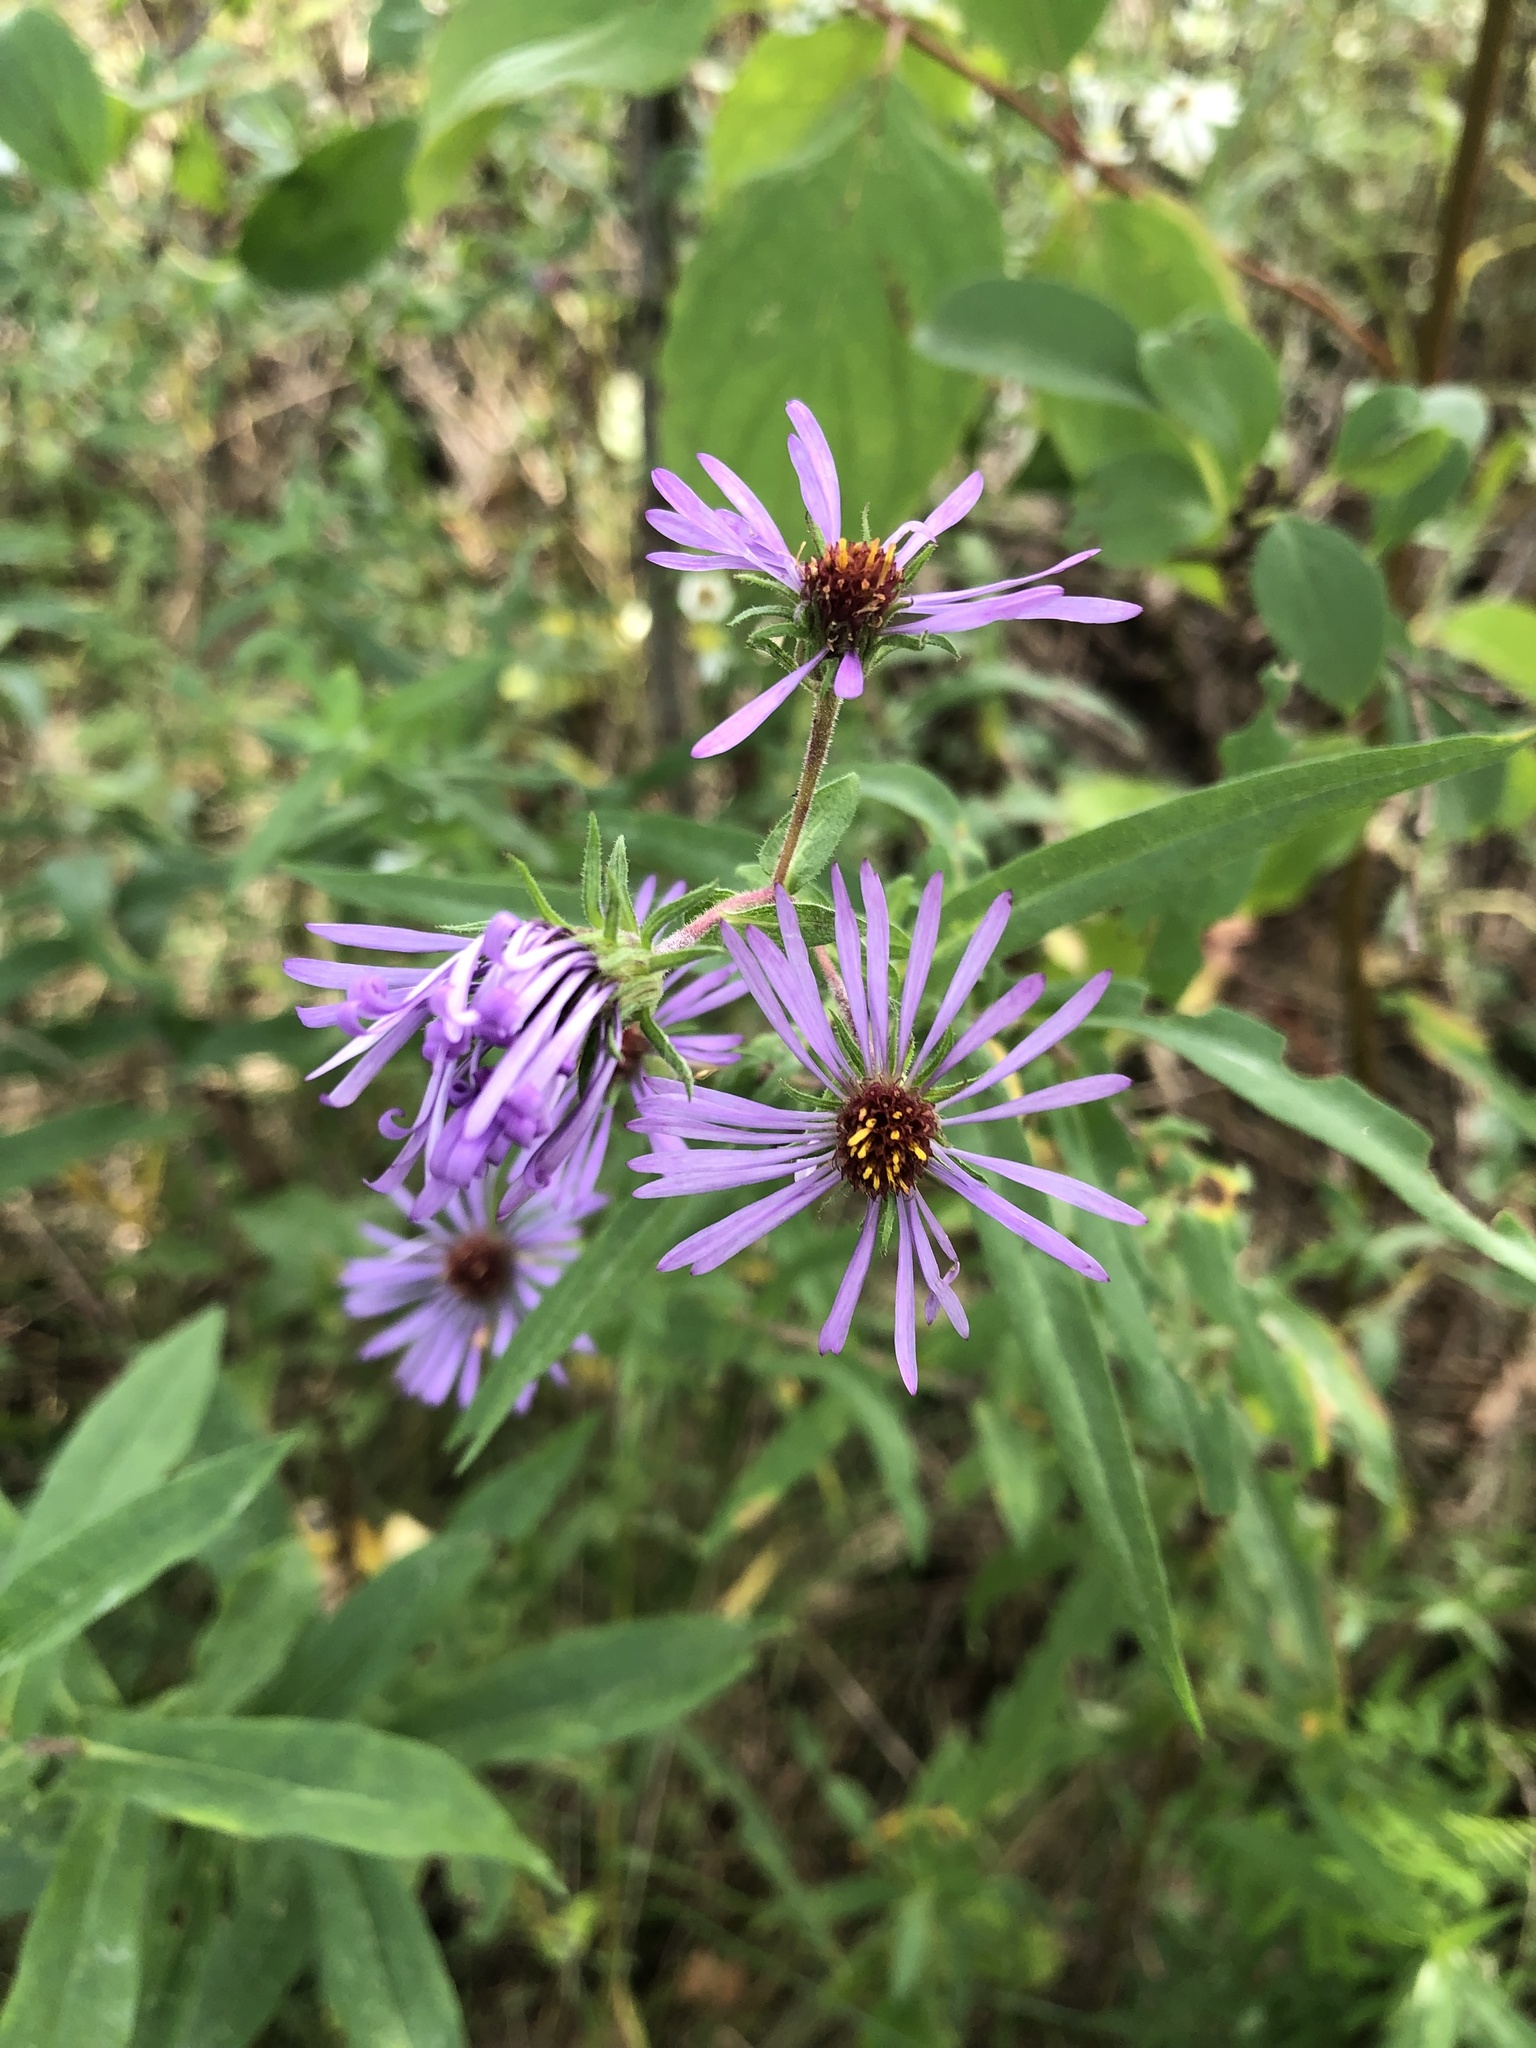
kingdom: Plantae
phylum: Tracheophyta
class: Magnoliopsida
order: Asterales
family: Asteraceae
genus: Symphyotrichum
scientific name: Symphyotrichum novae-angliae
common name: Michaelmas daisy
